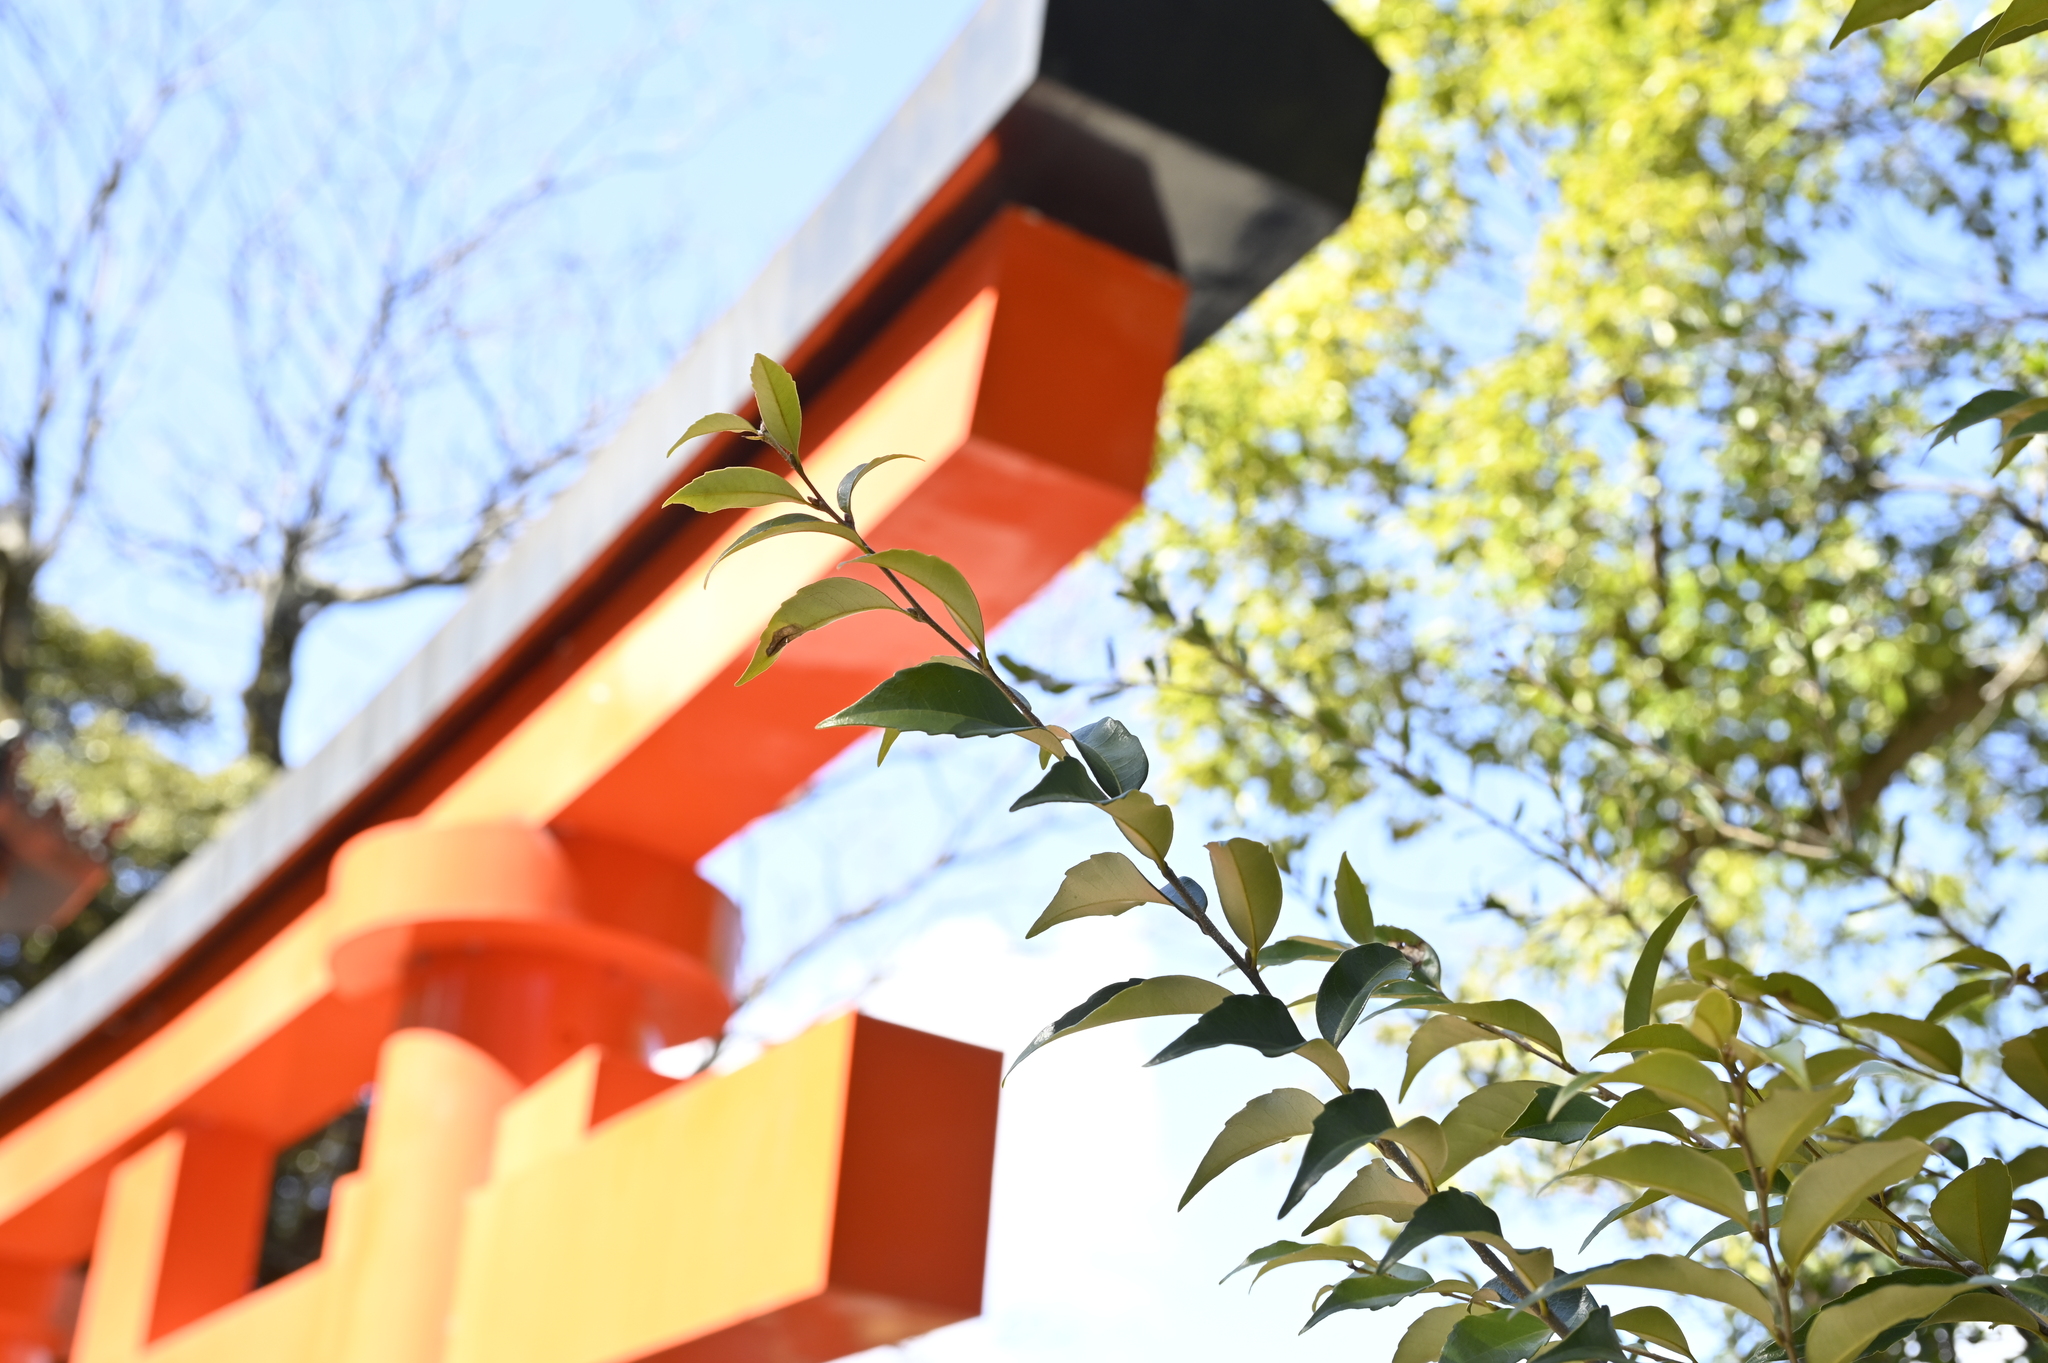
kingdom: Plantae
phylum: Tracheophyta
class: Magnoliopsida
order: Fagales
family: Fagaceae
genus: Castanopsis
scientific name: Castanopsis sieboldii
